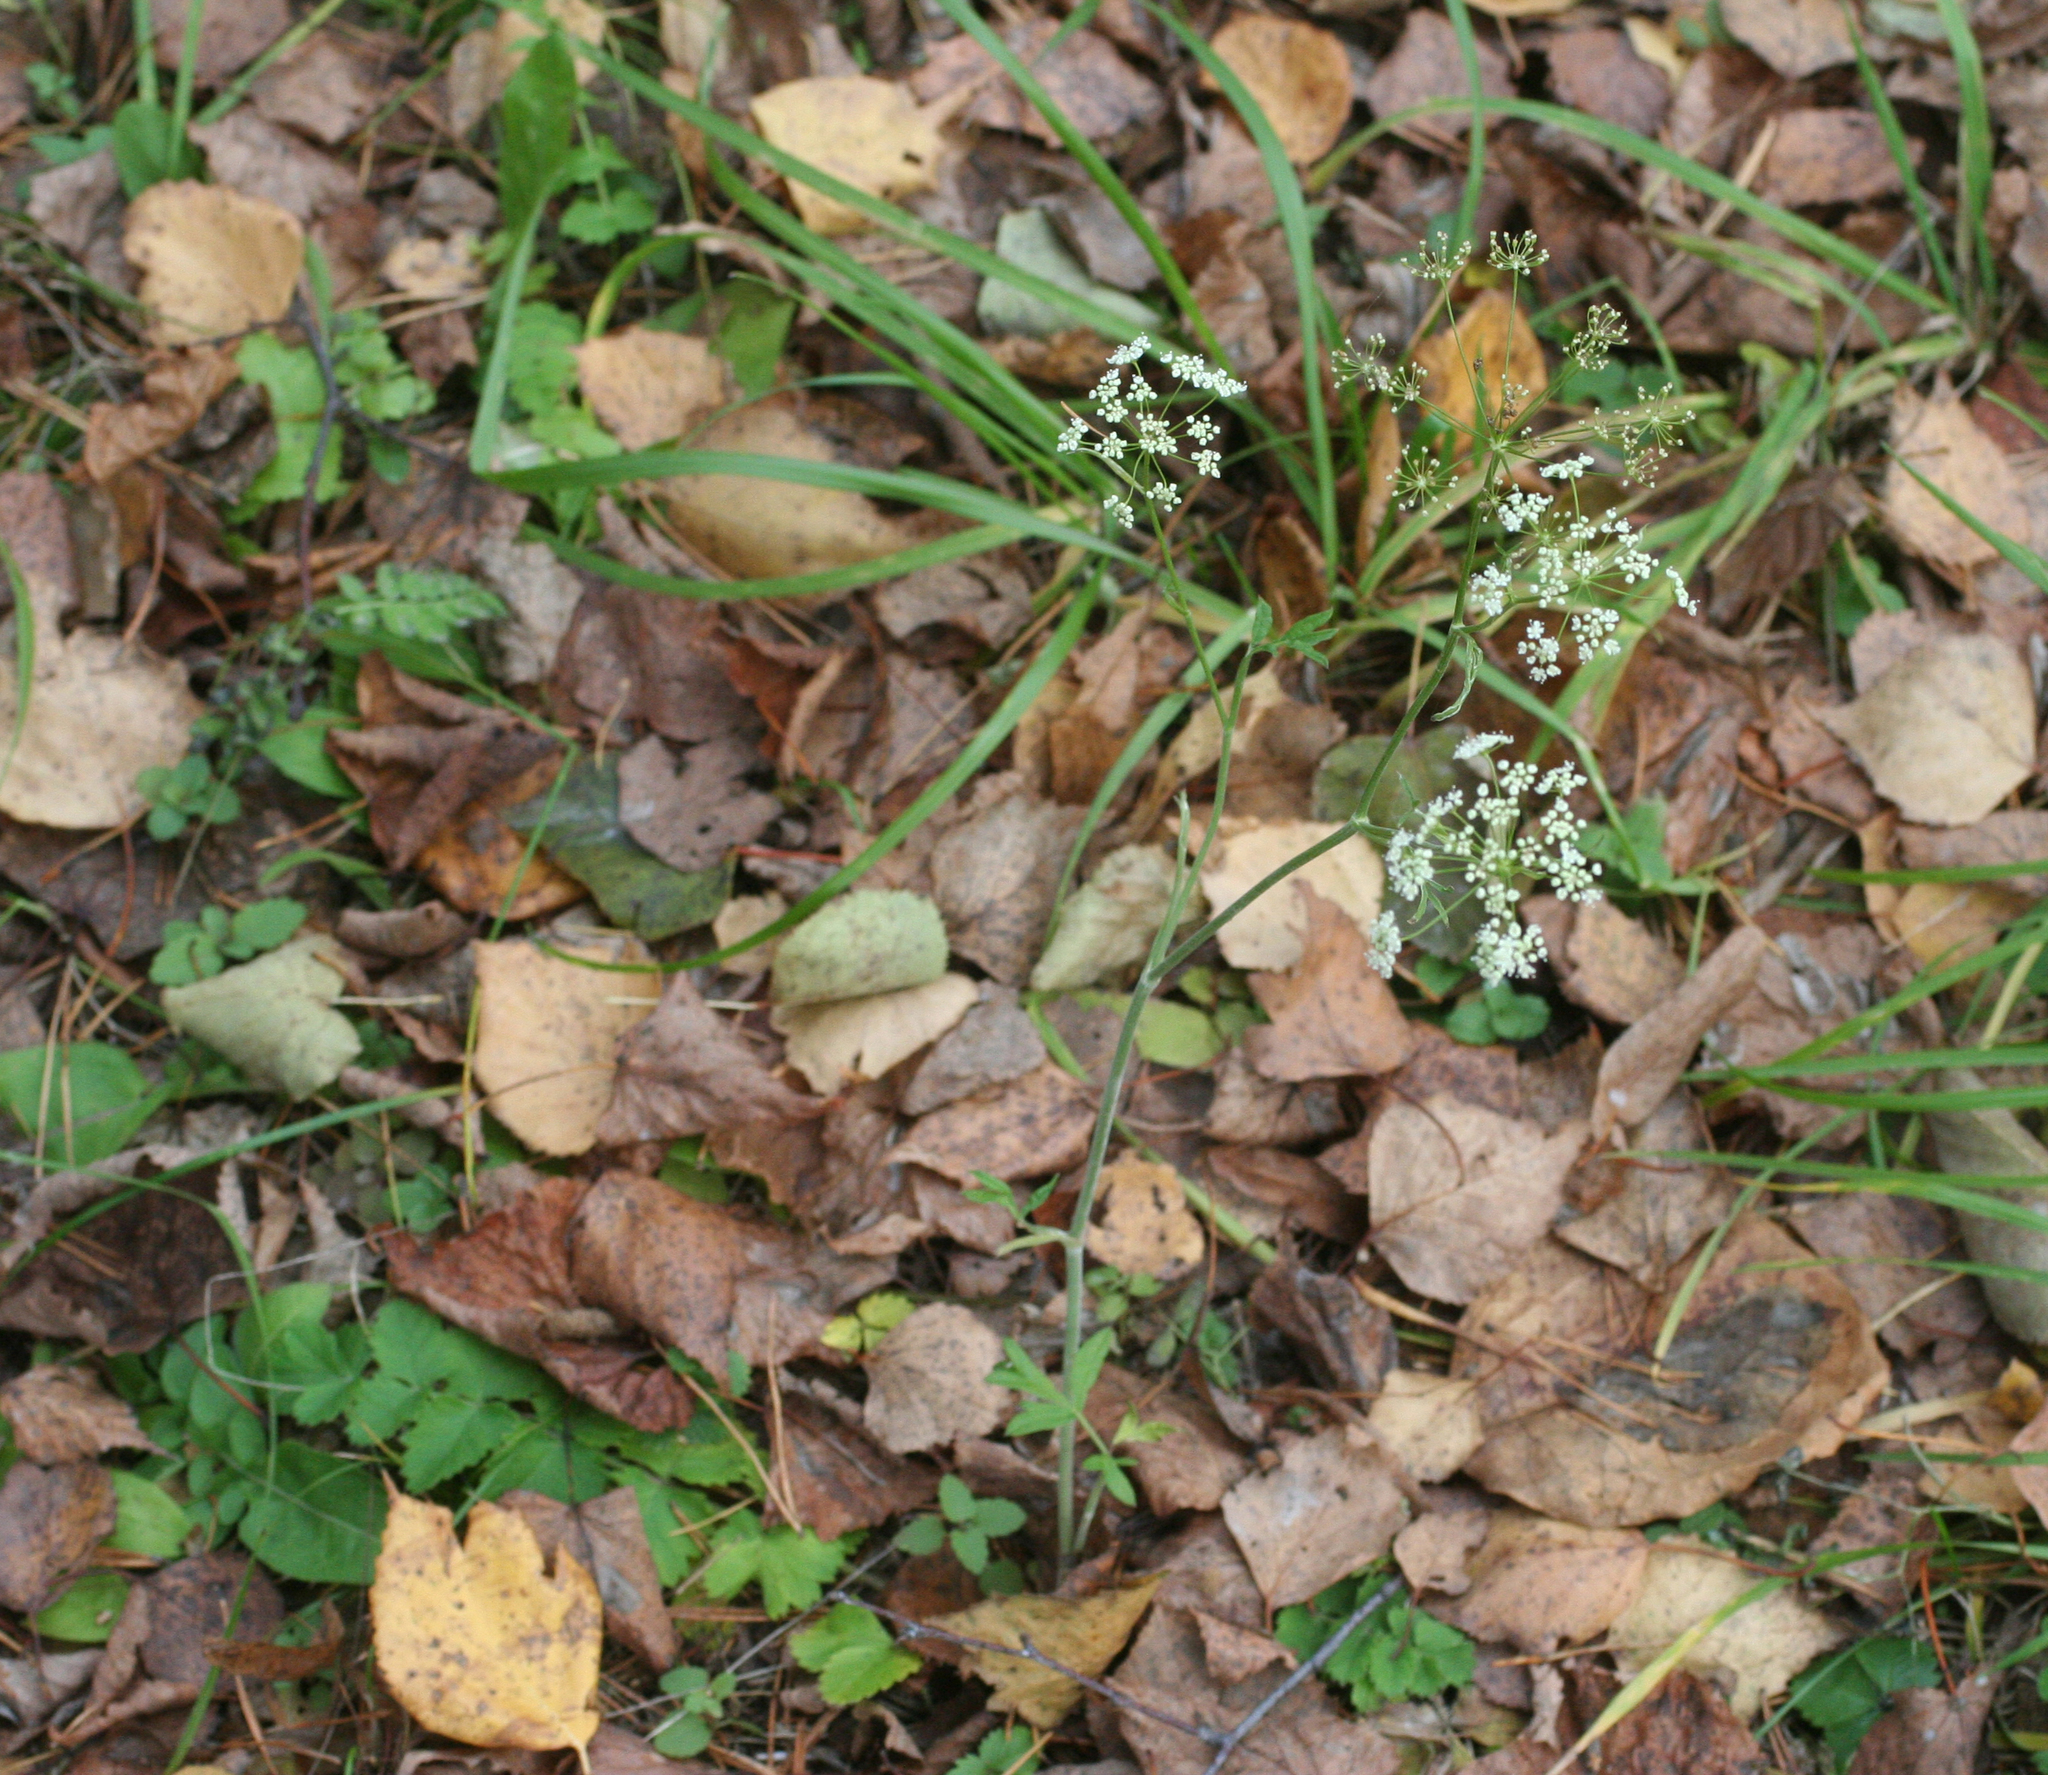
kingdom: Plantae
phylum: Tracheophyta
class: Magnoliopsida
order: Apiales
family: Apiaceae
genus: Pimpinella
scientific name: Pimpinella saxifraga
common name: Burnet-saxifrage
